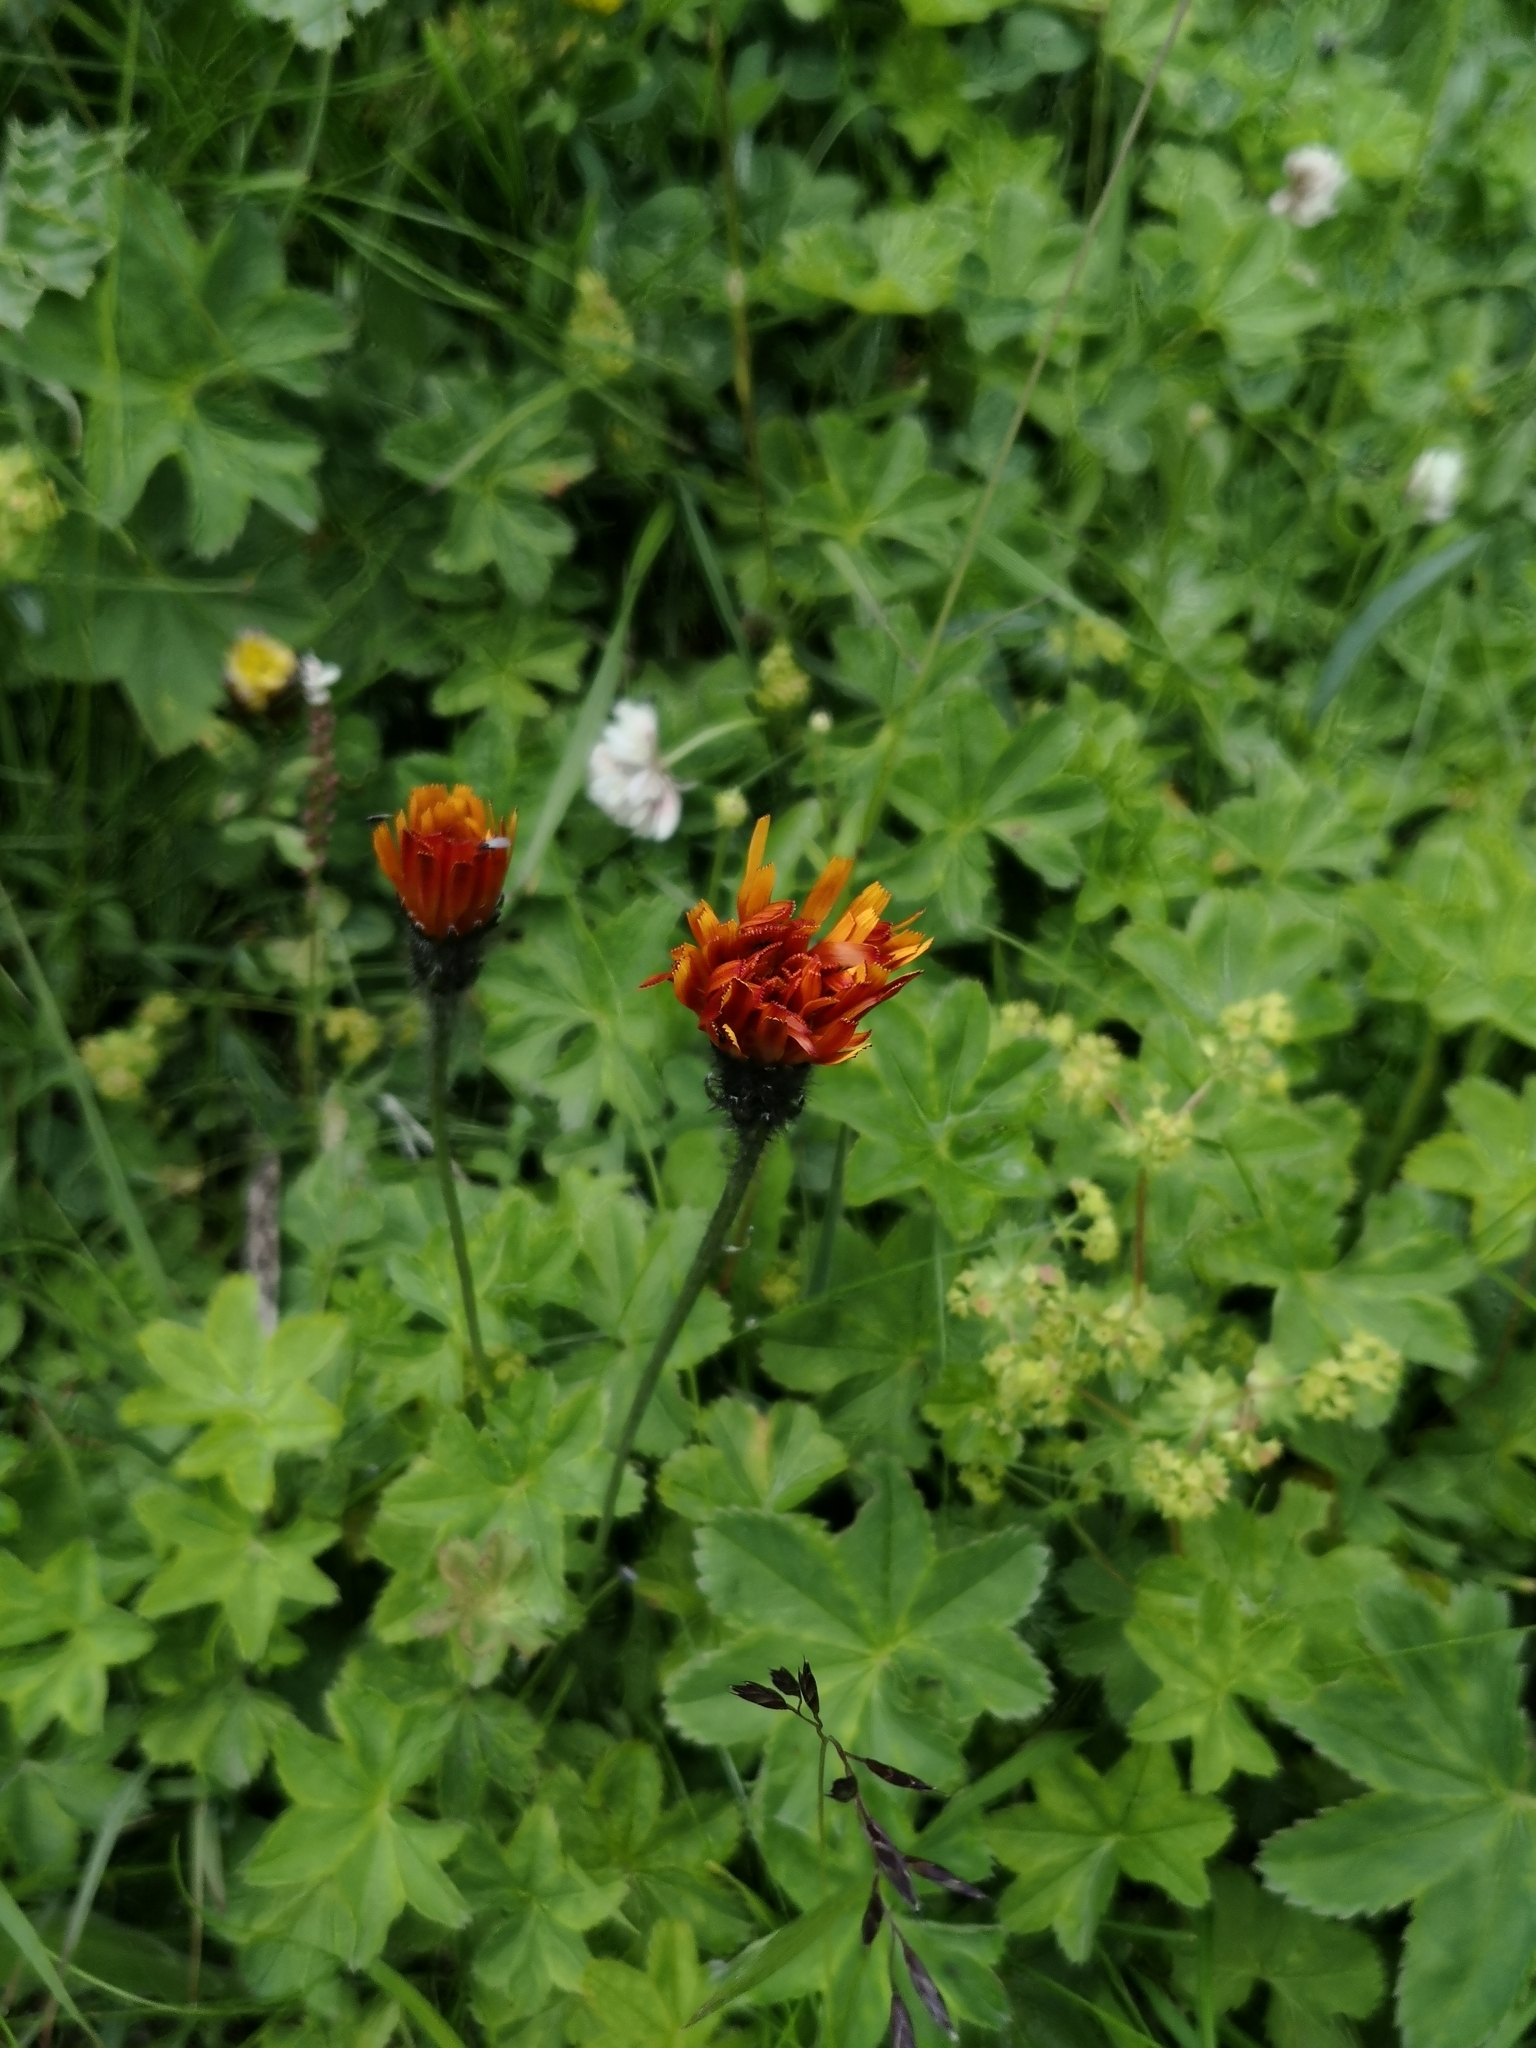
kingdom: Plantae
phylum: Tracheophyta
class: Magnoliopsida
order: Asterales
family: Asteraceae
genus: Crepis
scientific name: Crepis aurea
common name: Golden hawk's-beard
